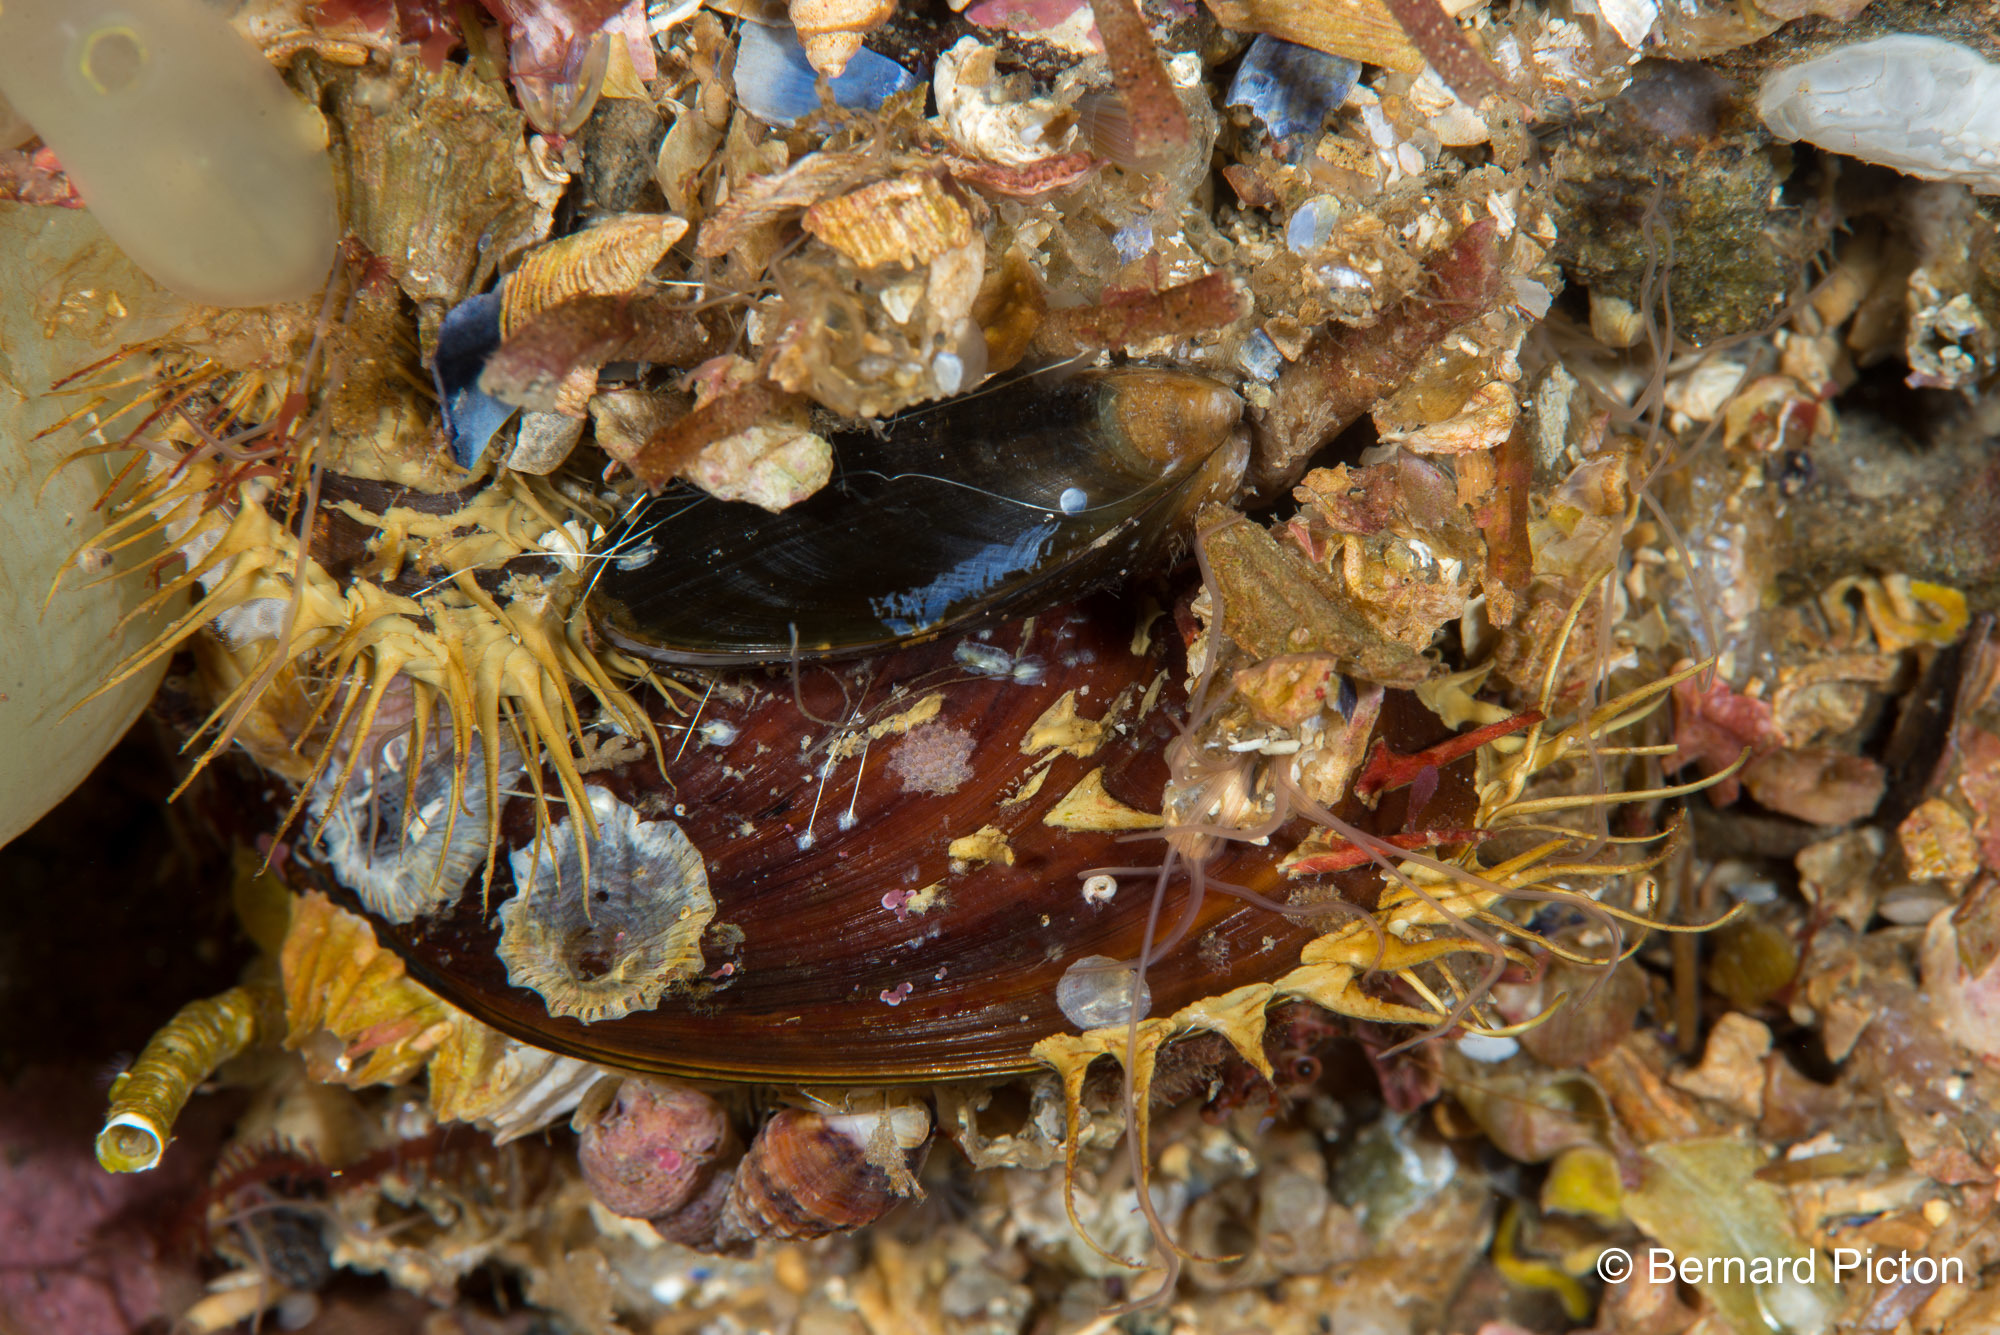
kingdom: Animalia
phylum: Mollusca
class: Bivalvia
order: Mytilida
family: Mytilidae
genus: Modiolus
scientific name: Modiolus modiolus
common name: Horse-mussel
